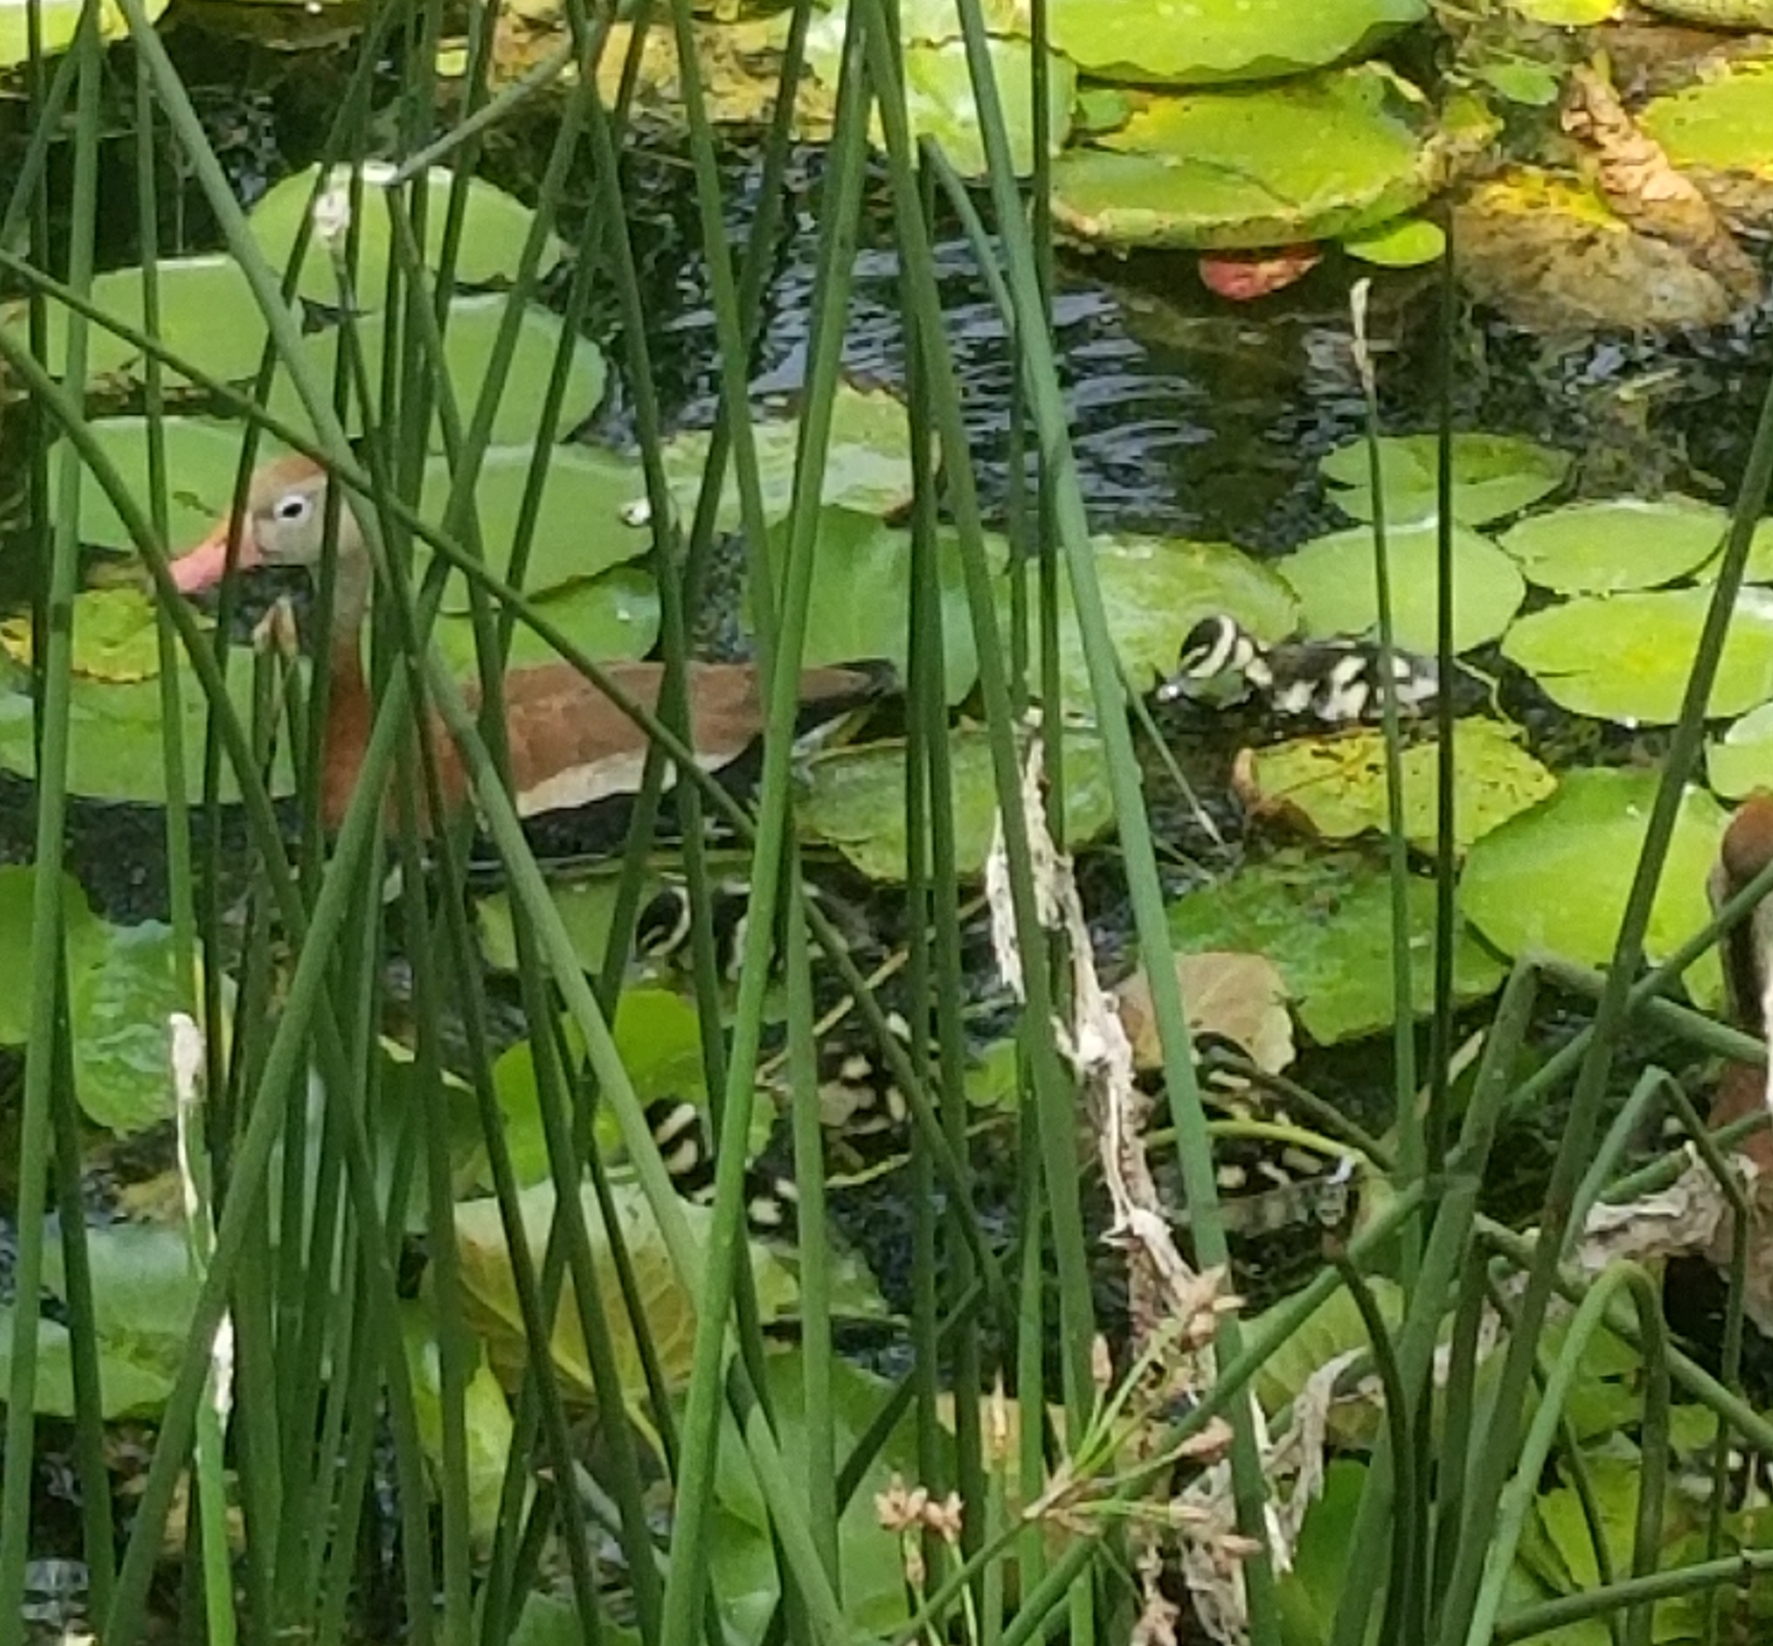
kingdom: Animalia
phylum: Chordata
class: Aves
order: Anseriformes
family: Anatidae
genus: Dendrocygna
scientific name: Dendrocygna autumnalis
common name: Black-bellied whistling duck
